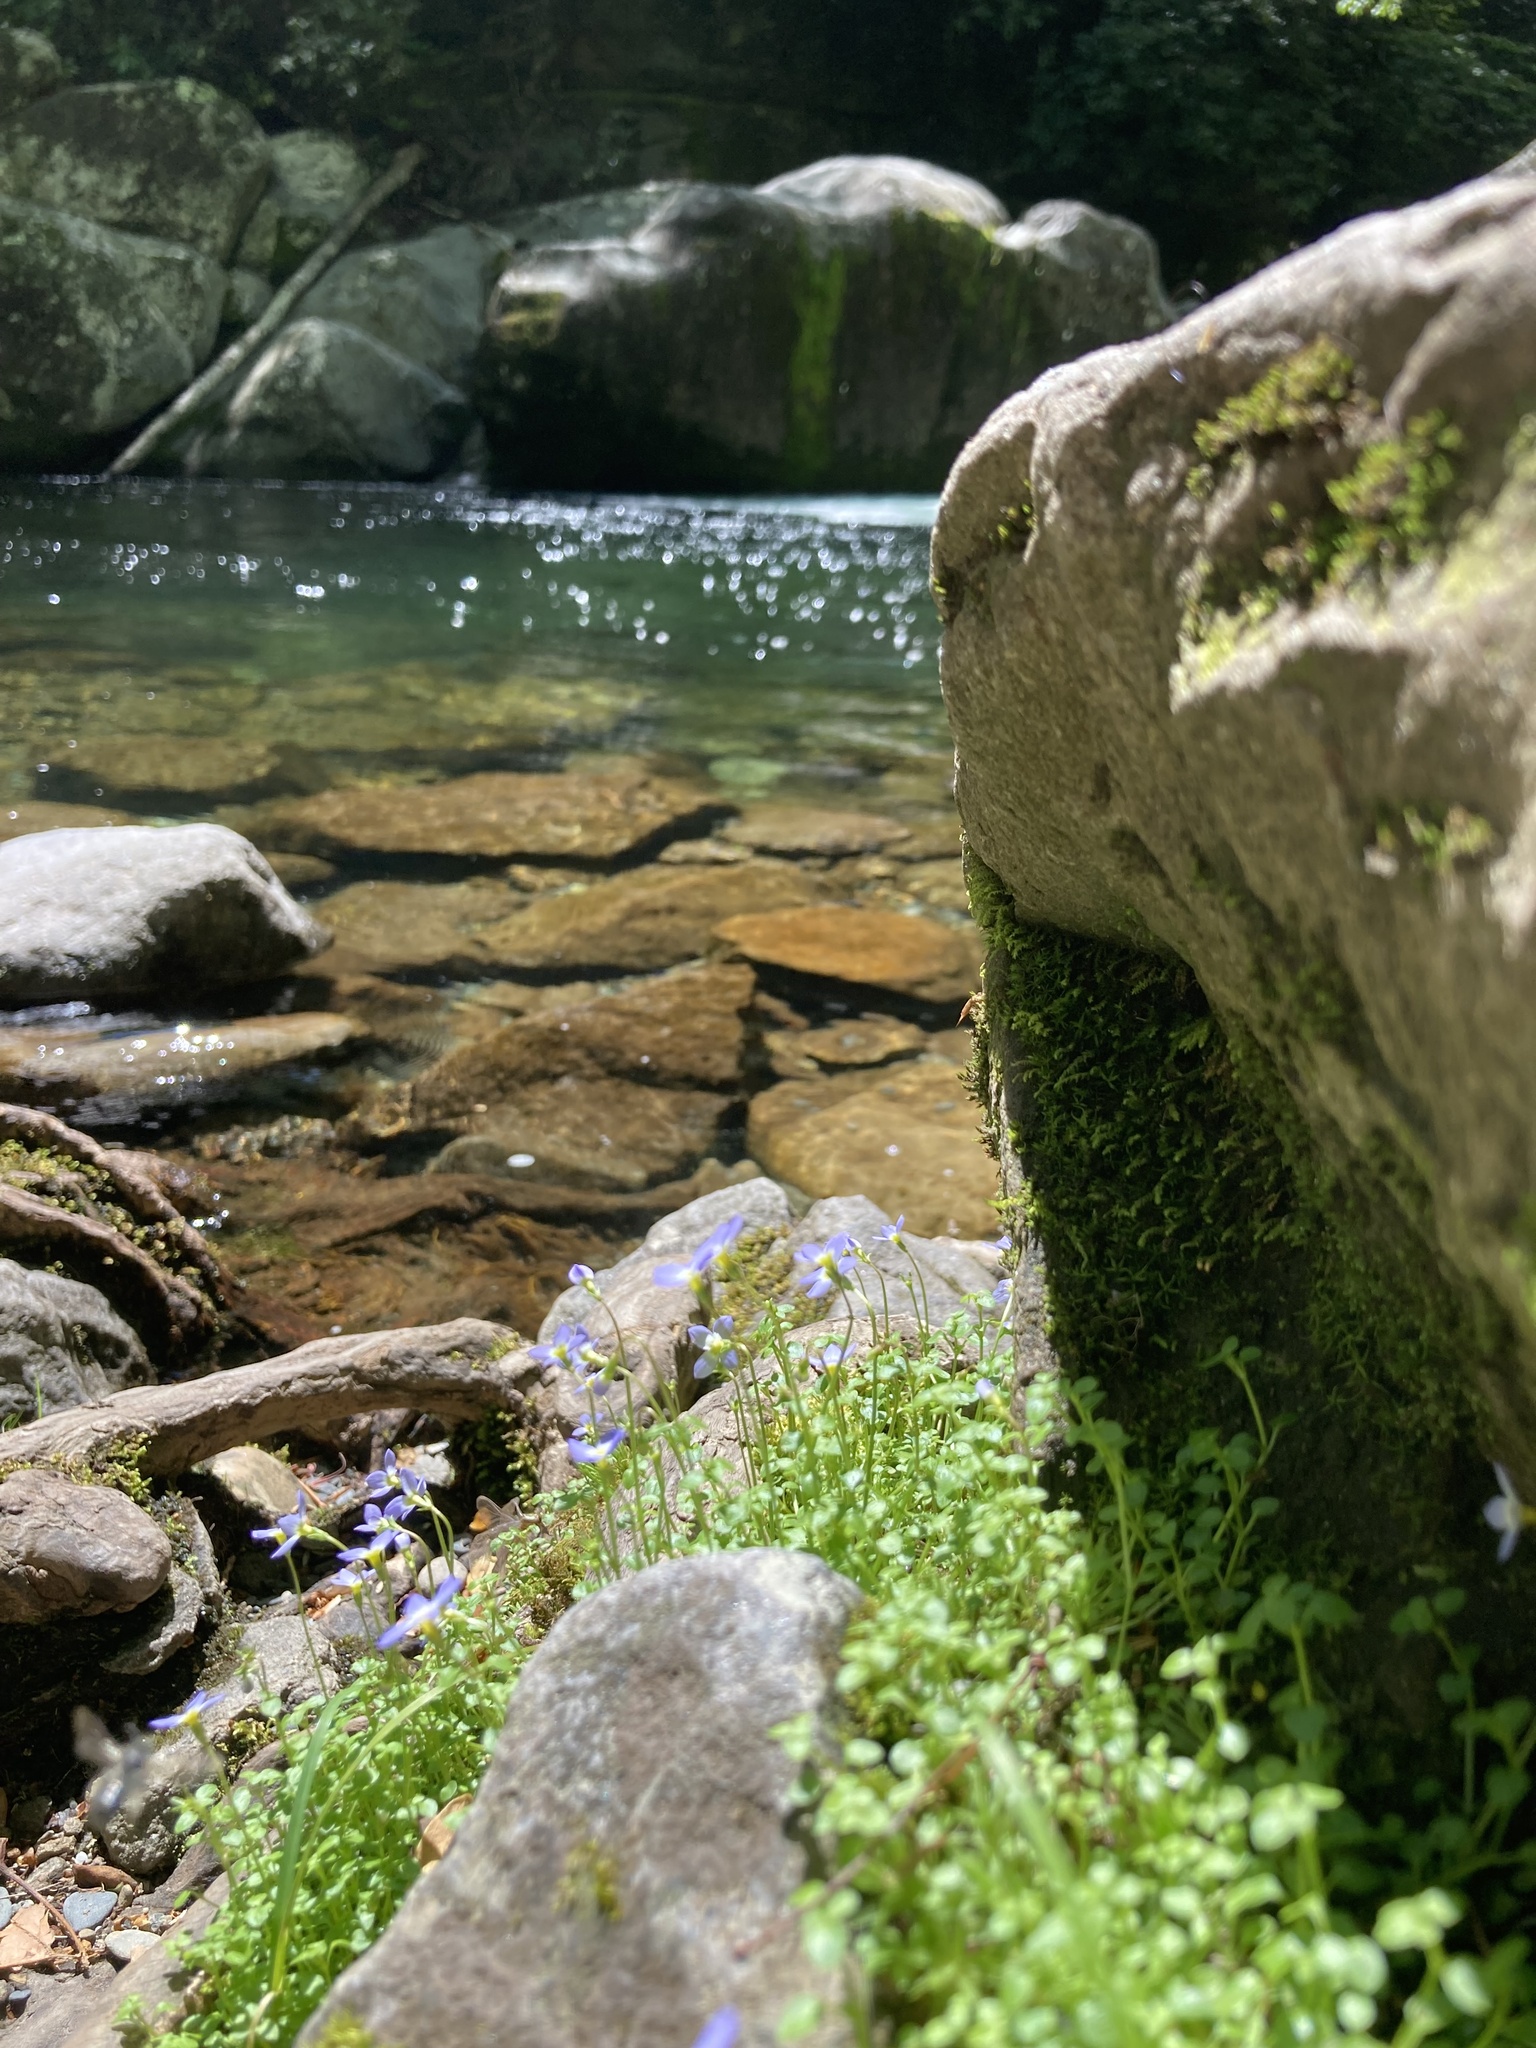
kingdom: Plantae
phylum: Tracheophyta
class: Magnoliopsida
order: Gentianales
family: Rubiaceae
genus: Houstonia
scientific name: Houstonia serpyllifolia
